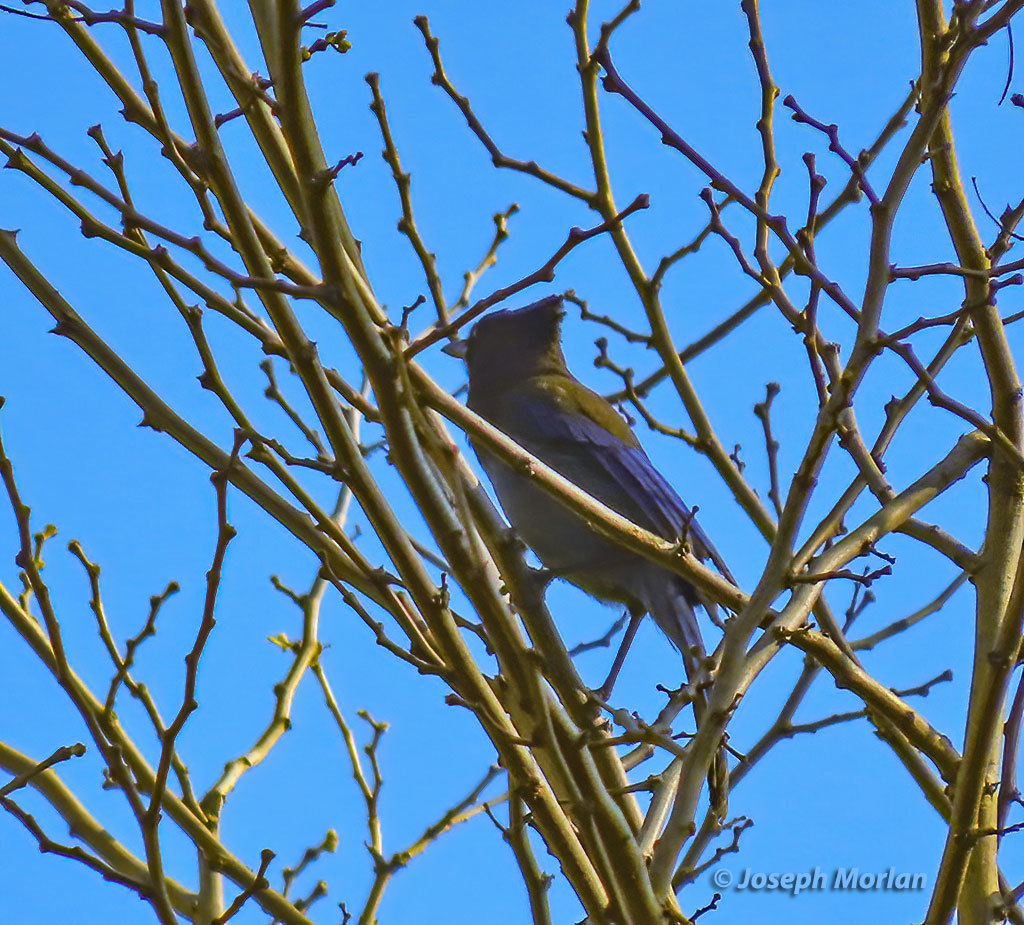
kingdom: Animalia
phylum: Chordata
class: Aves
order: Passeriformes
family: Corvidae
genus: Cyanocitta
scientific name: Cyanocitta stelleri
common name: Steller's jay
